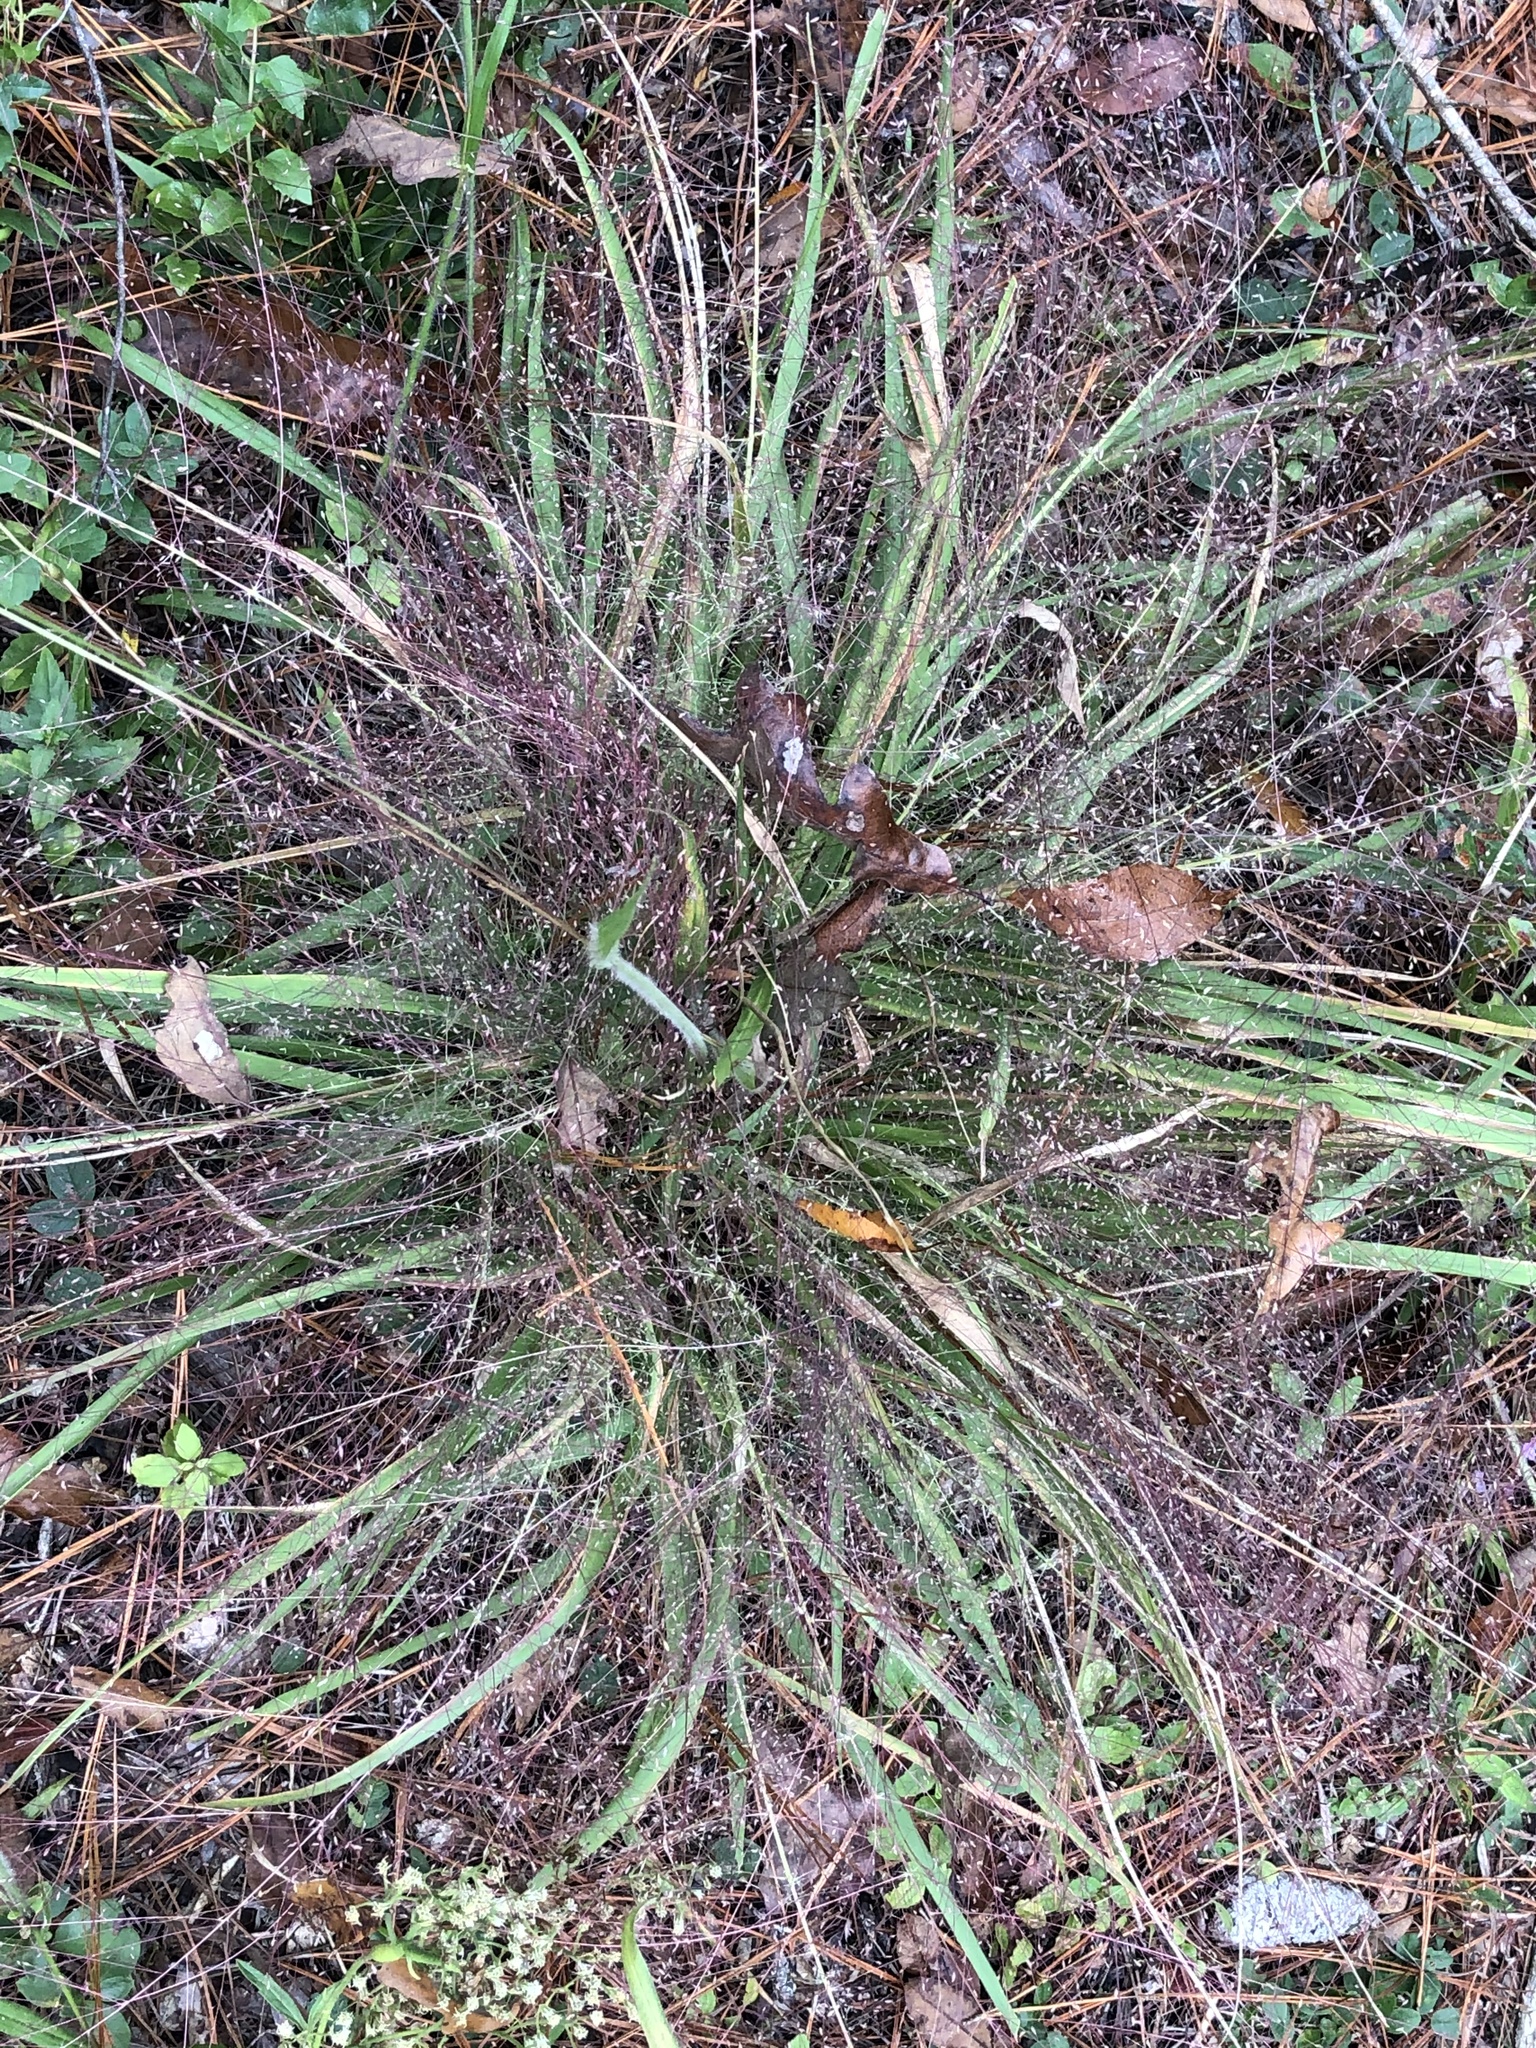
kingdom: Plantae
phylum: Tracheophyta
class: Liliopsida
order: Poales
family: Poaceae
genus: Eragrostis
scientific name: Eragrostis spectabilis
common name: Petticoat-climber
